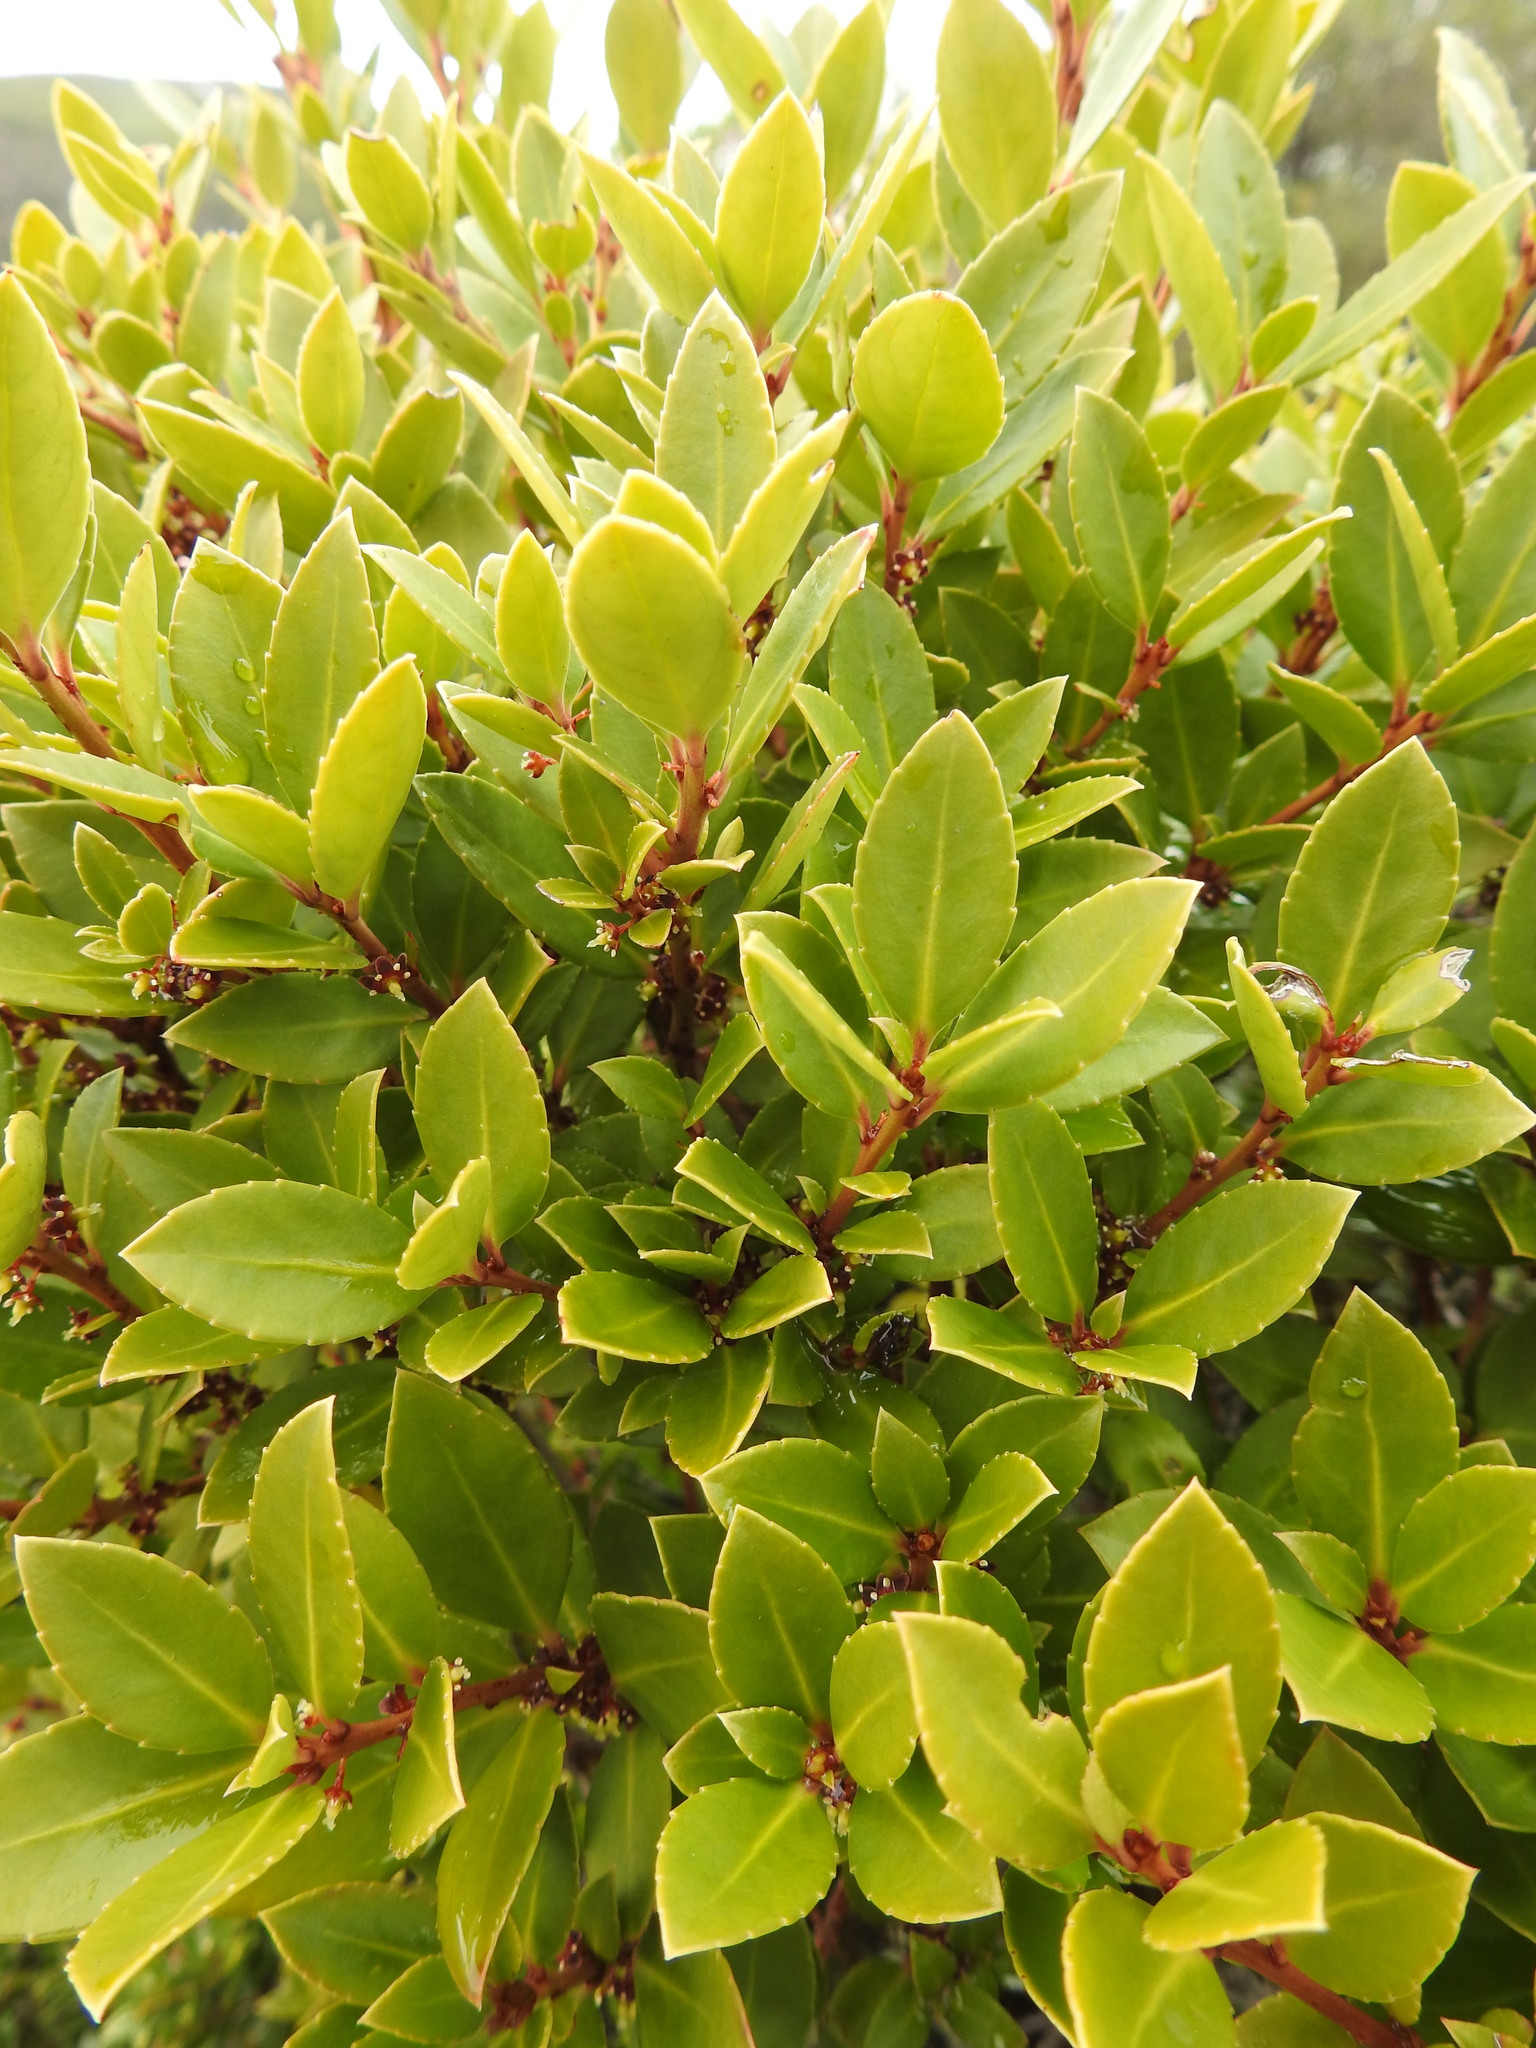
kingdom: Plantae
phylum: Tracheophyta
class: Magnoliopsida
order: Celastrales
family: Celastraceae
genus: Maytenus
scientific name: Maytenus magellanica
